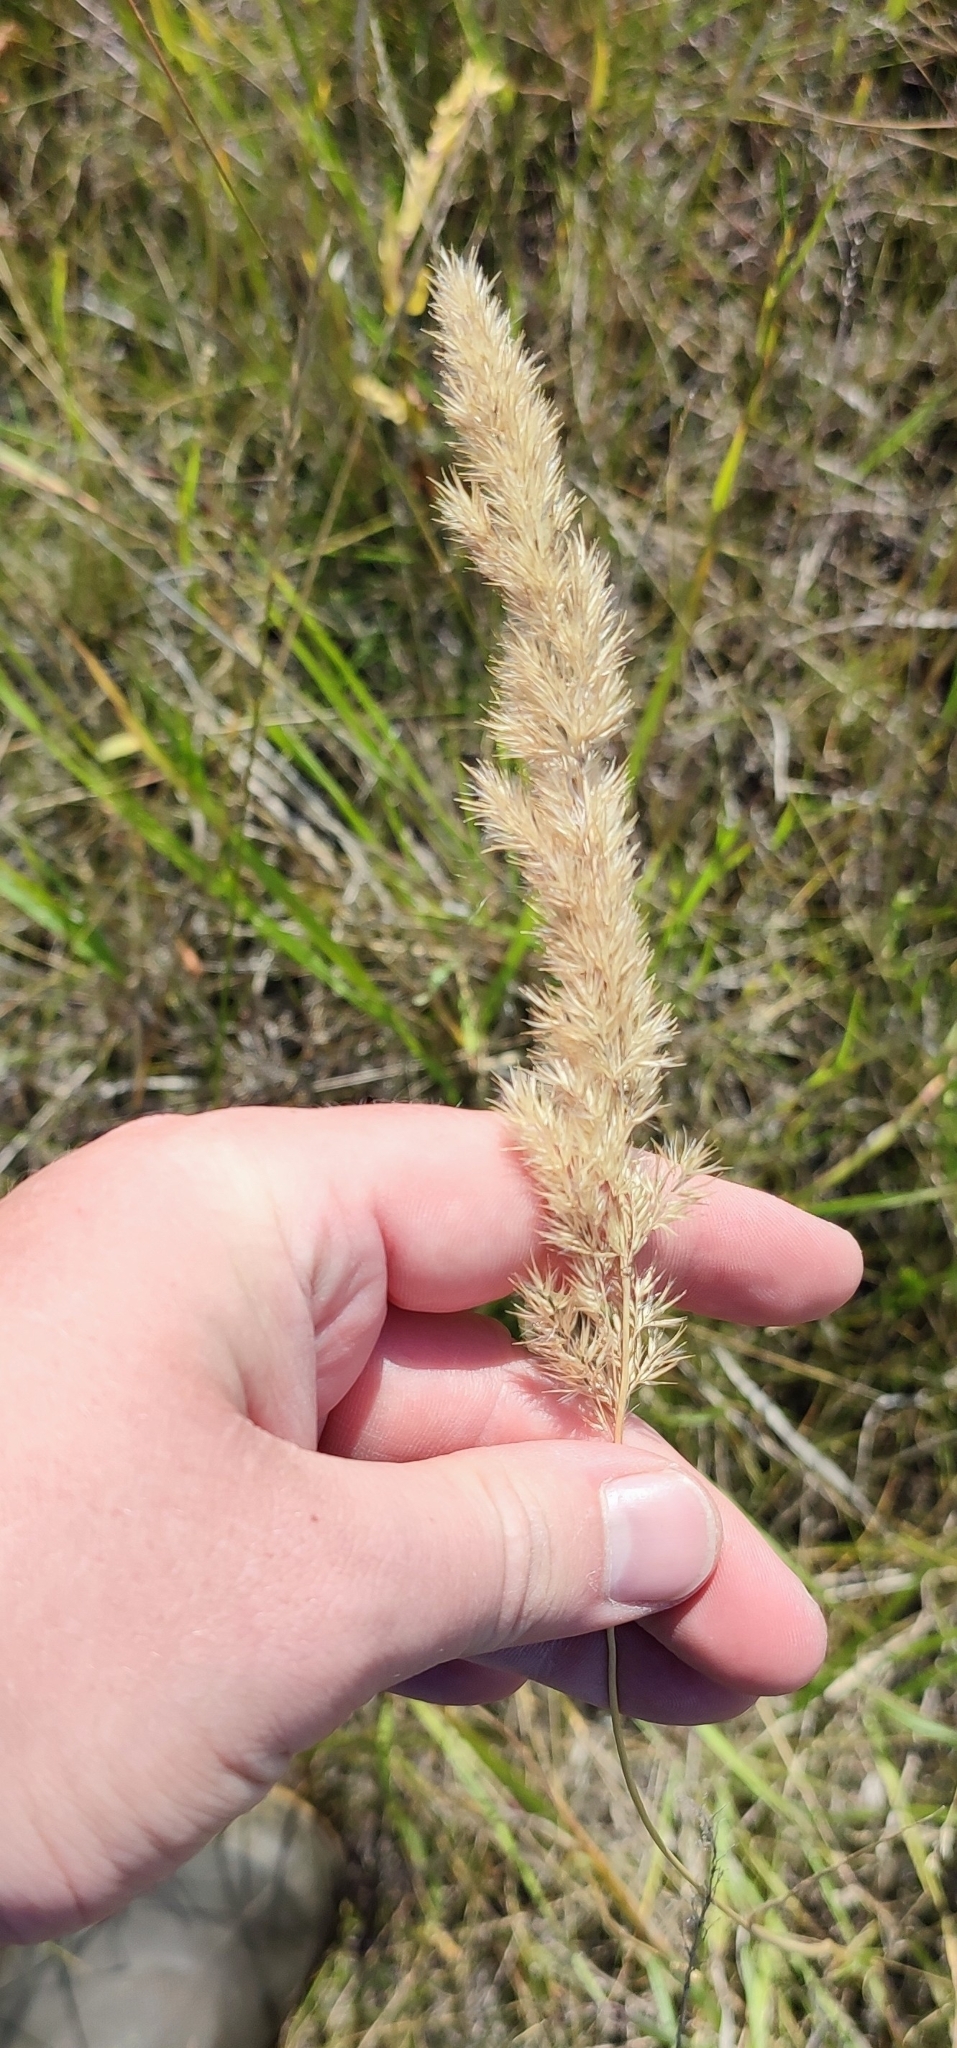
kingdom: Plantae
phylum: Tracheophyta
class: Liliopsida
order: Poales
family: Poaceae
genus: Calamagrostis
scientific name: Calamagrostis epigejos
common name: Wood small-reed
